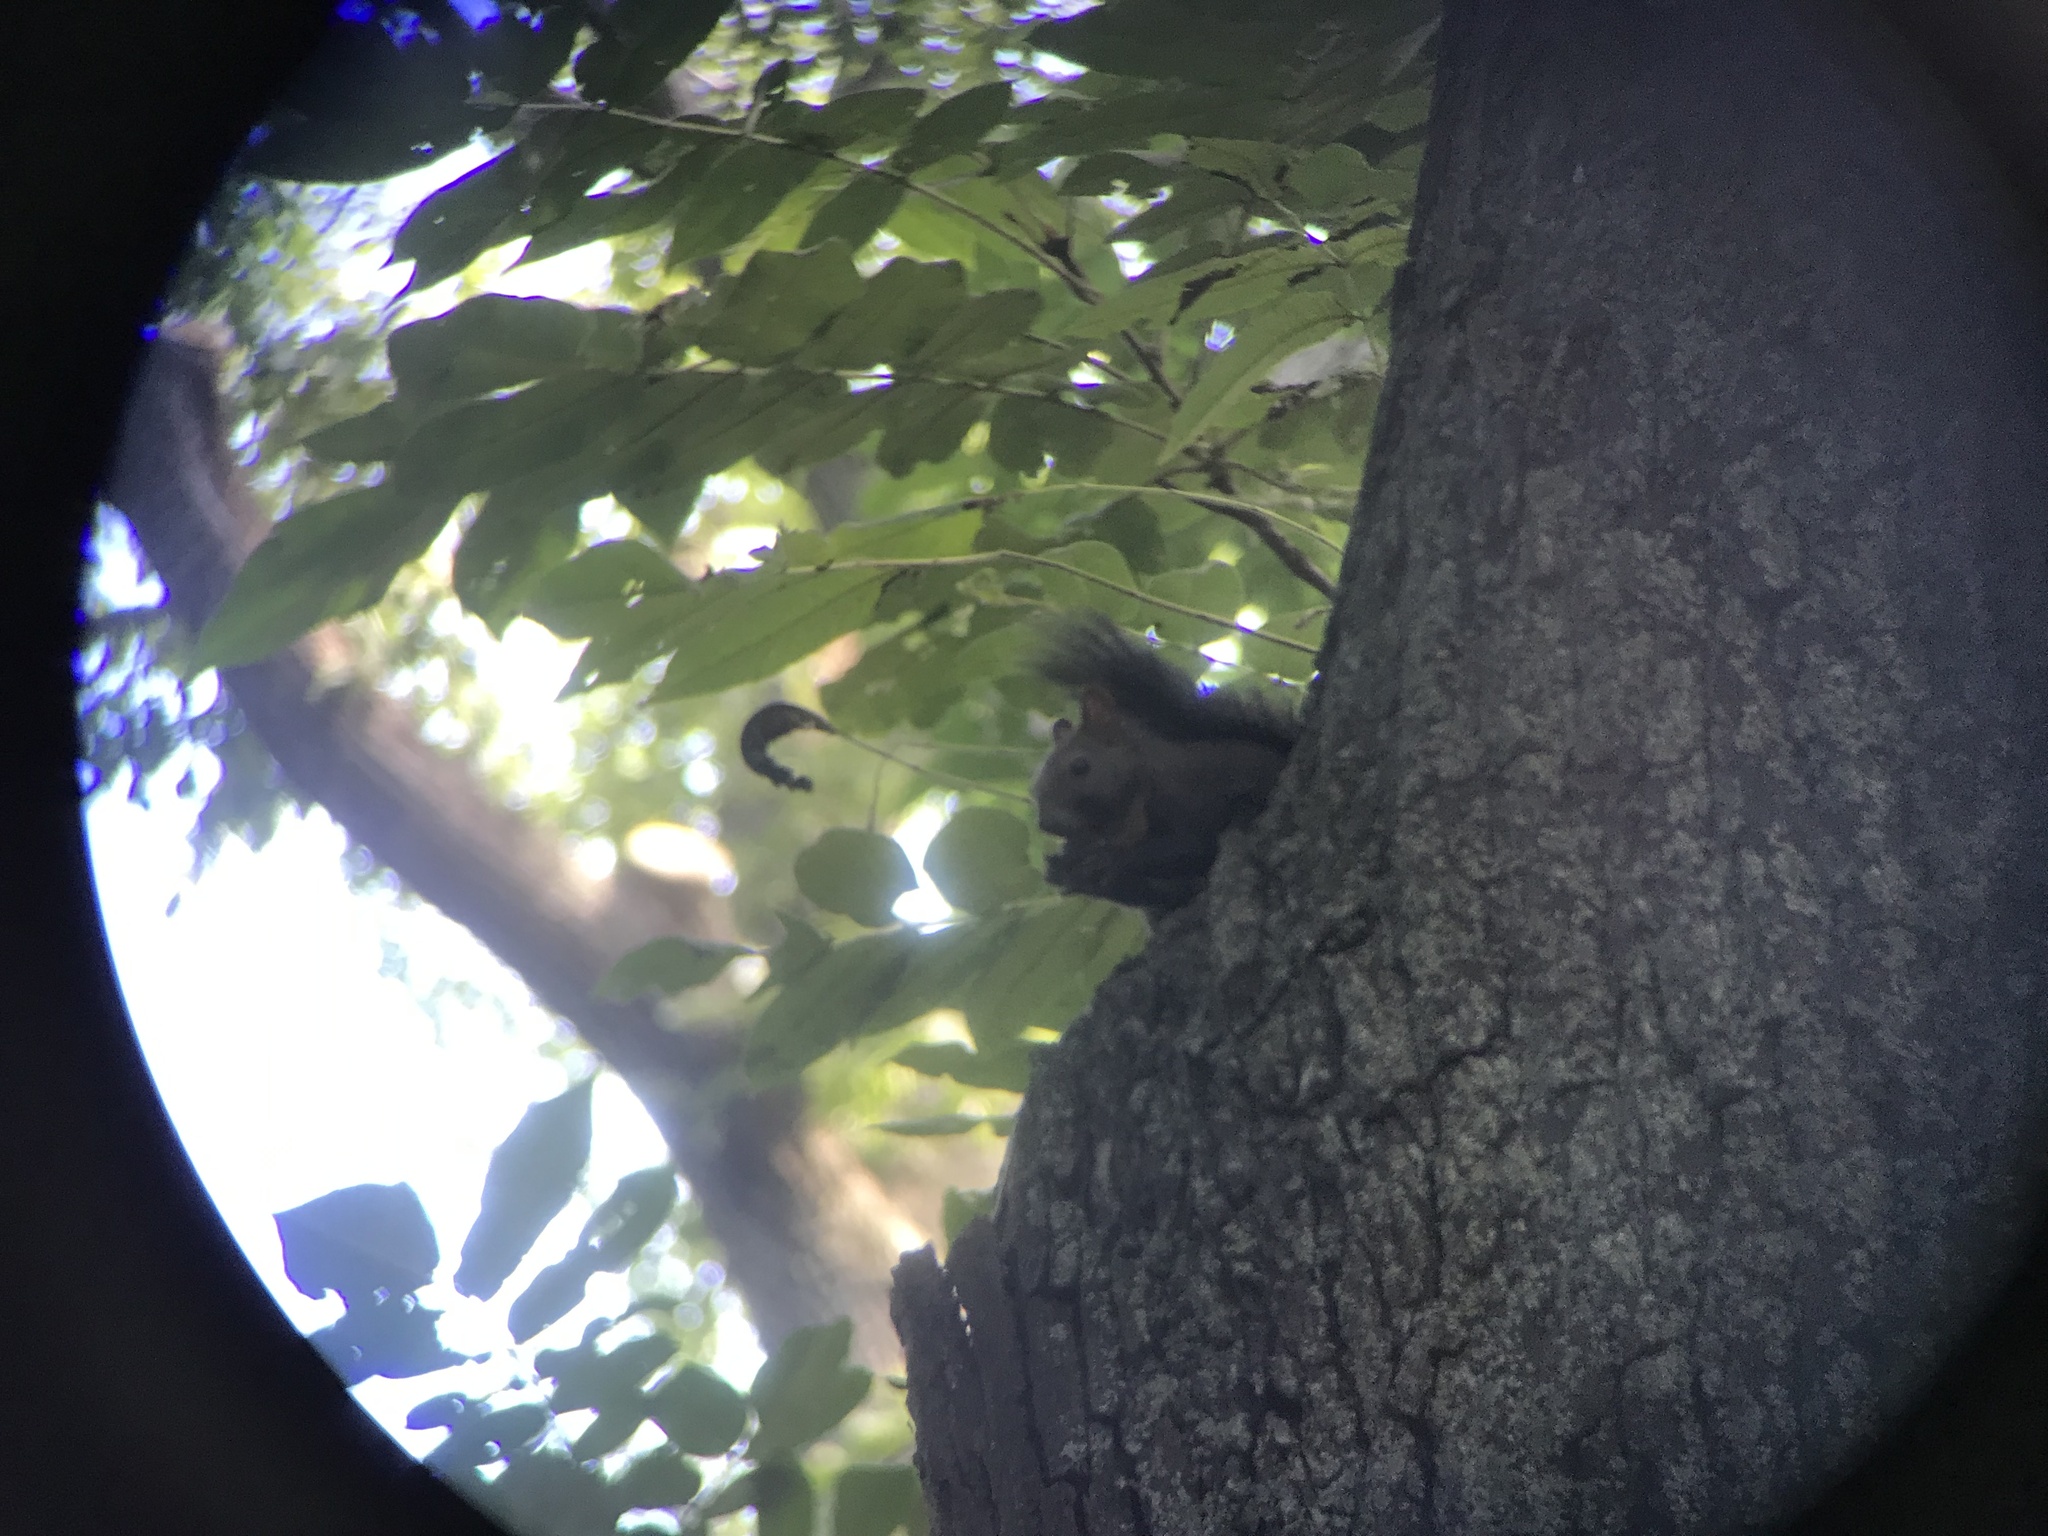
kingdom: Animalia
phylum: Chordata
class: Mammalia
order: Rodentia
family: Sciuridae
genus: Sciurus
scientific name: Sciurus vulgaris
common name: Eurasian red squirrel
